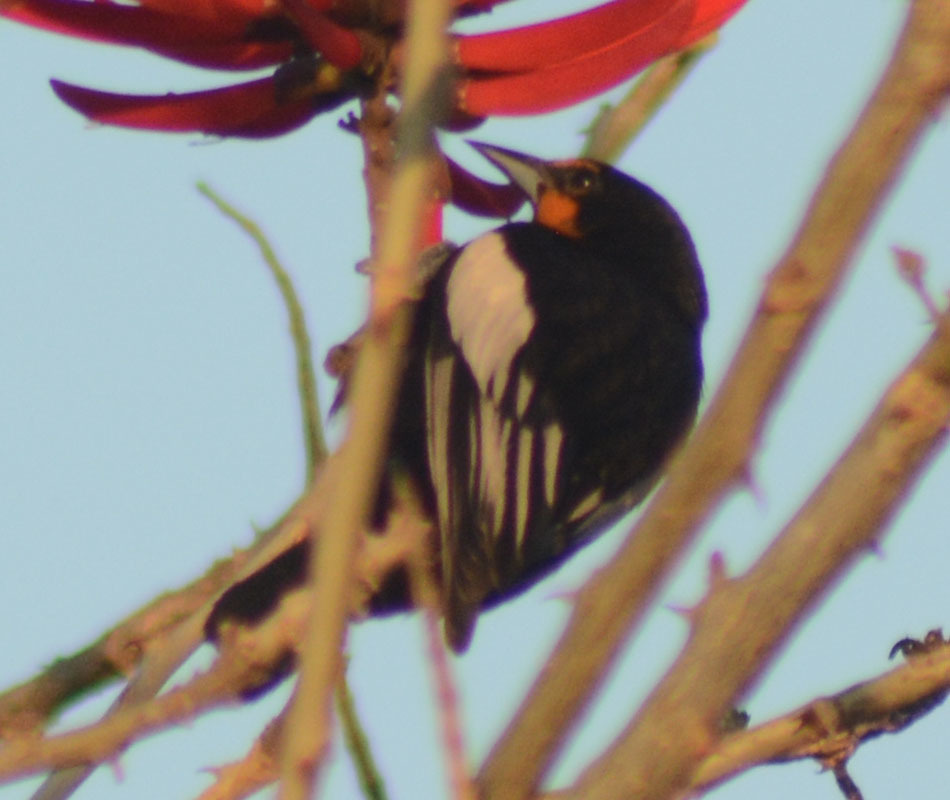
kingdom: Animalia
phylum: Chordata
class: Aves
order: Passeriformes
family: Icteridae
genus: Icterus
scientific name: Icterus abeillei
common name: Black-backed oriole
